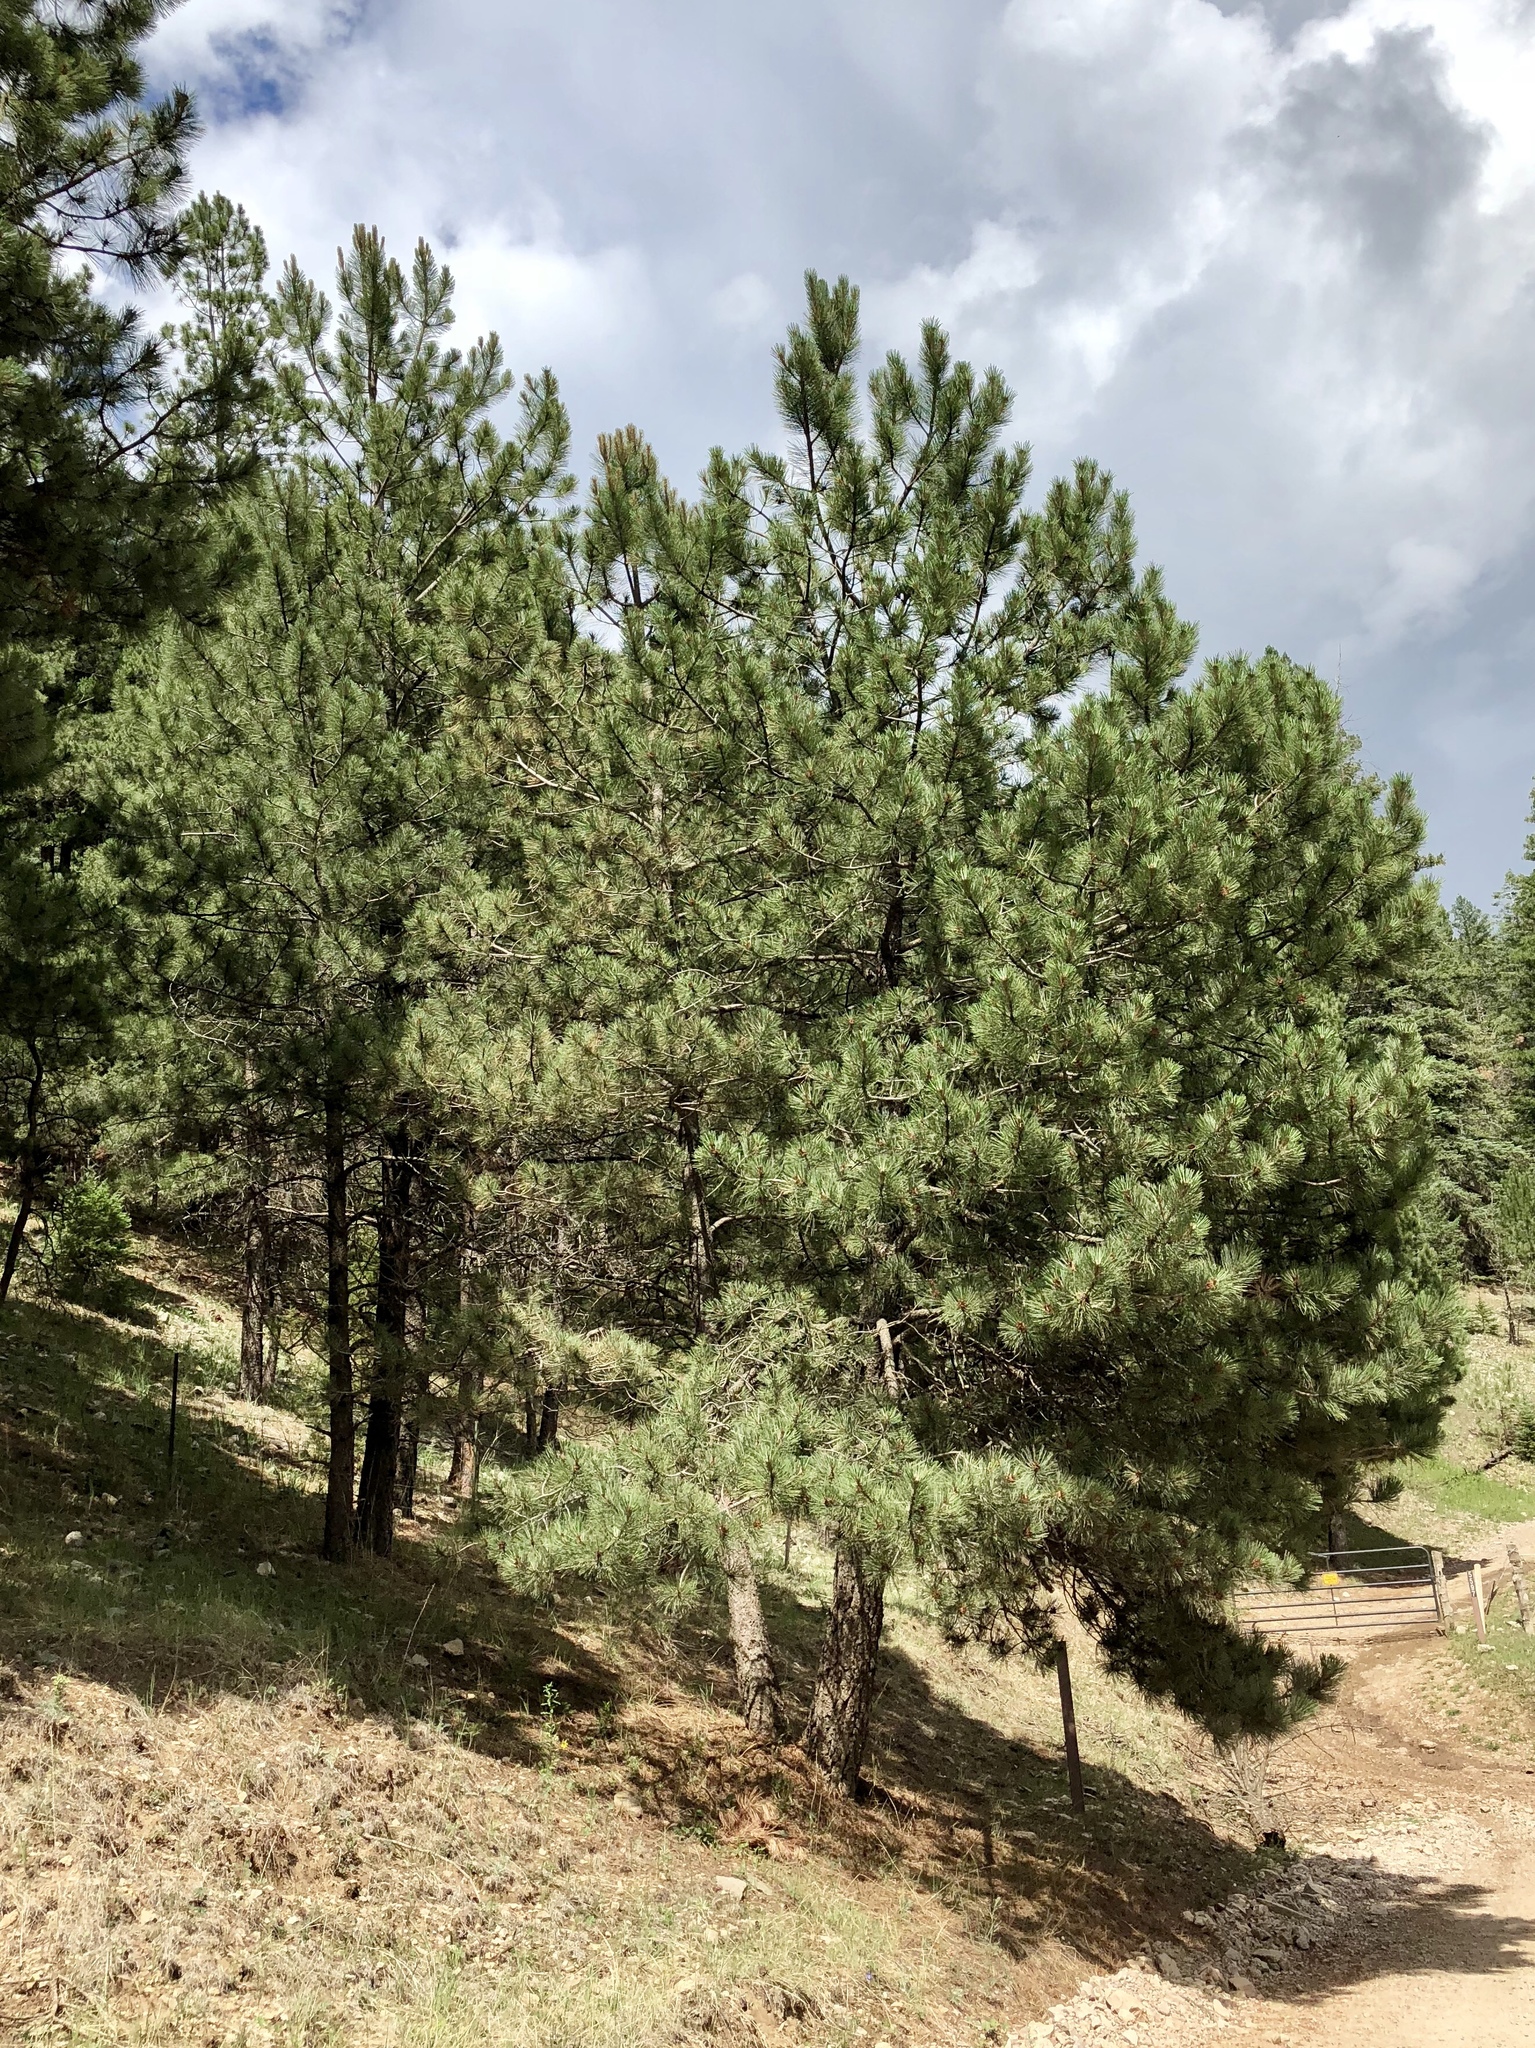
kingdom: Plantae
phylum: Tracheophyta
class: Pinopsida
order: Pinales
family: Pinaceae
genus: Pinus
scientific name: Pinus ponderosa
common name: Western yellow-pine
